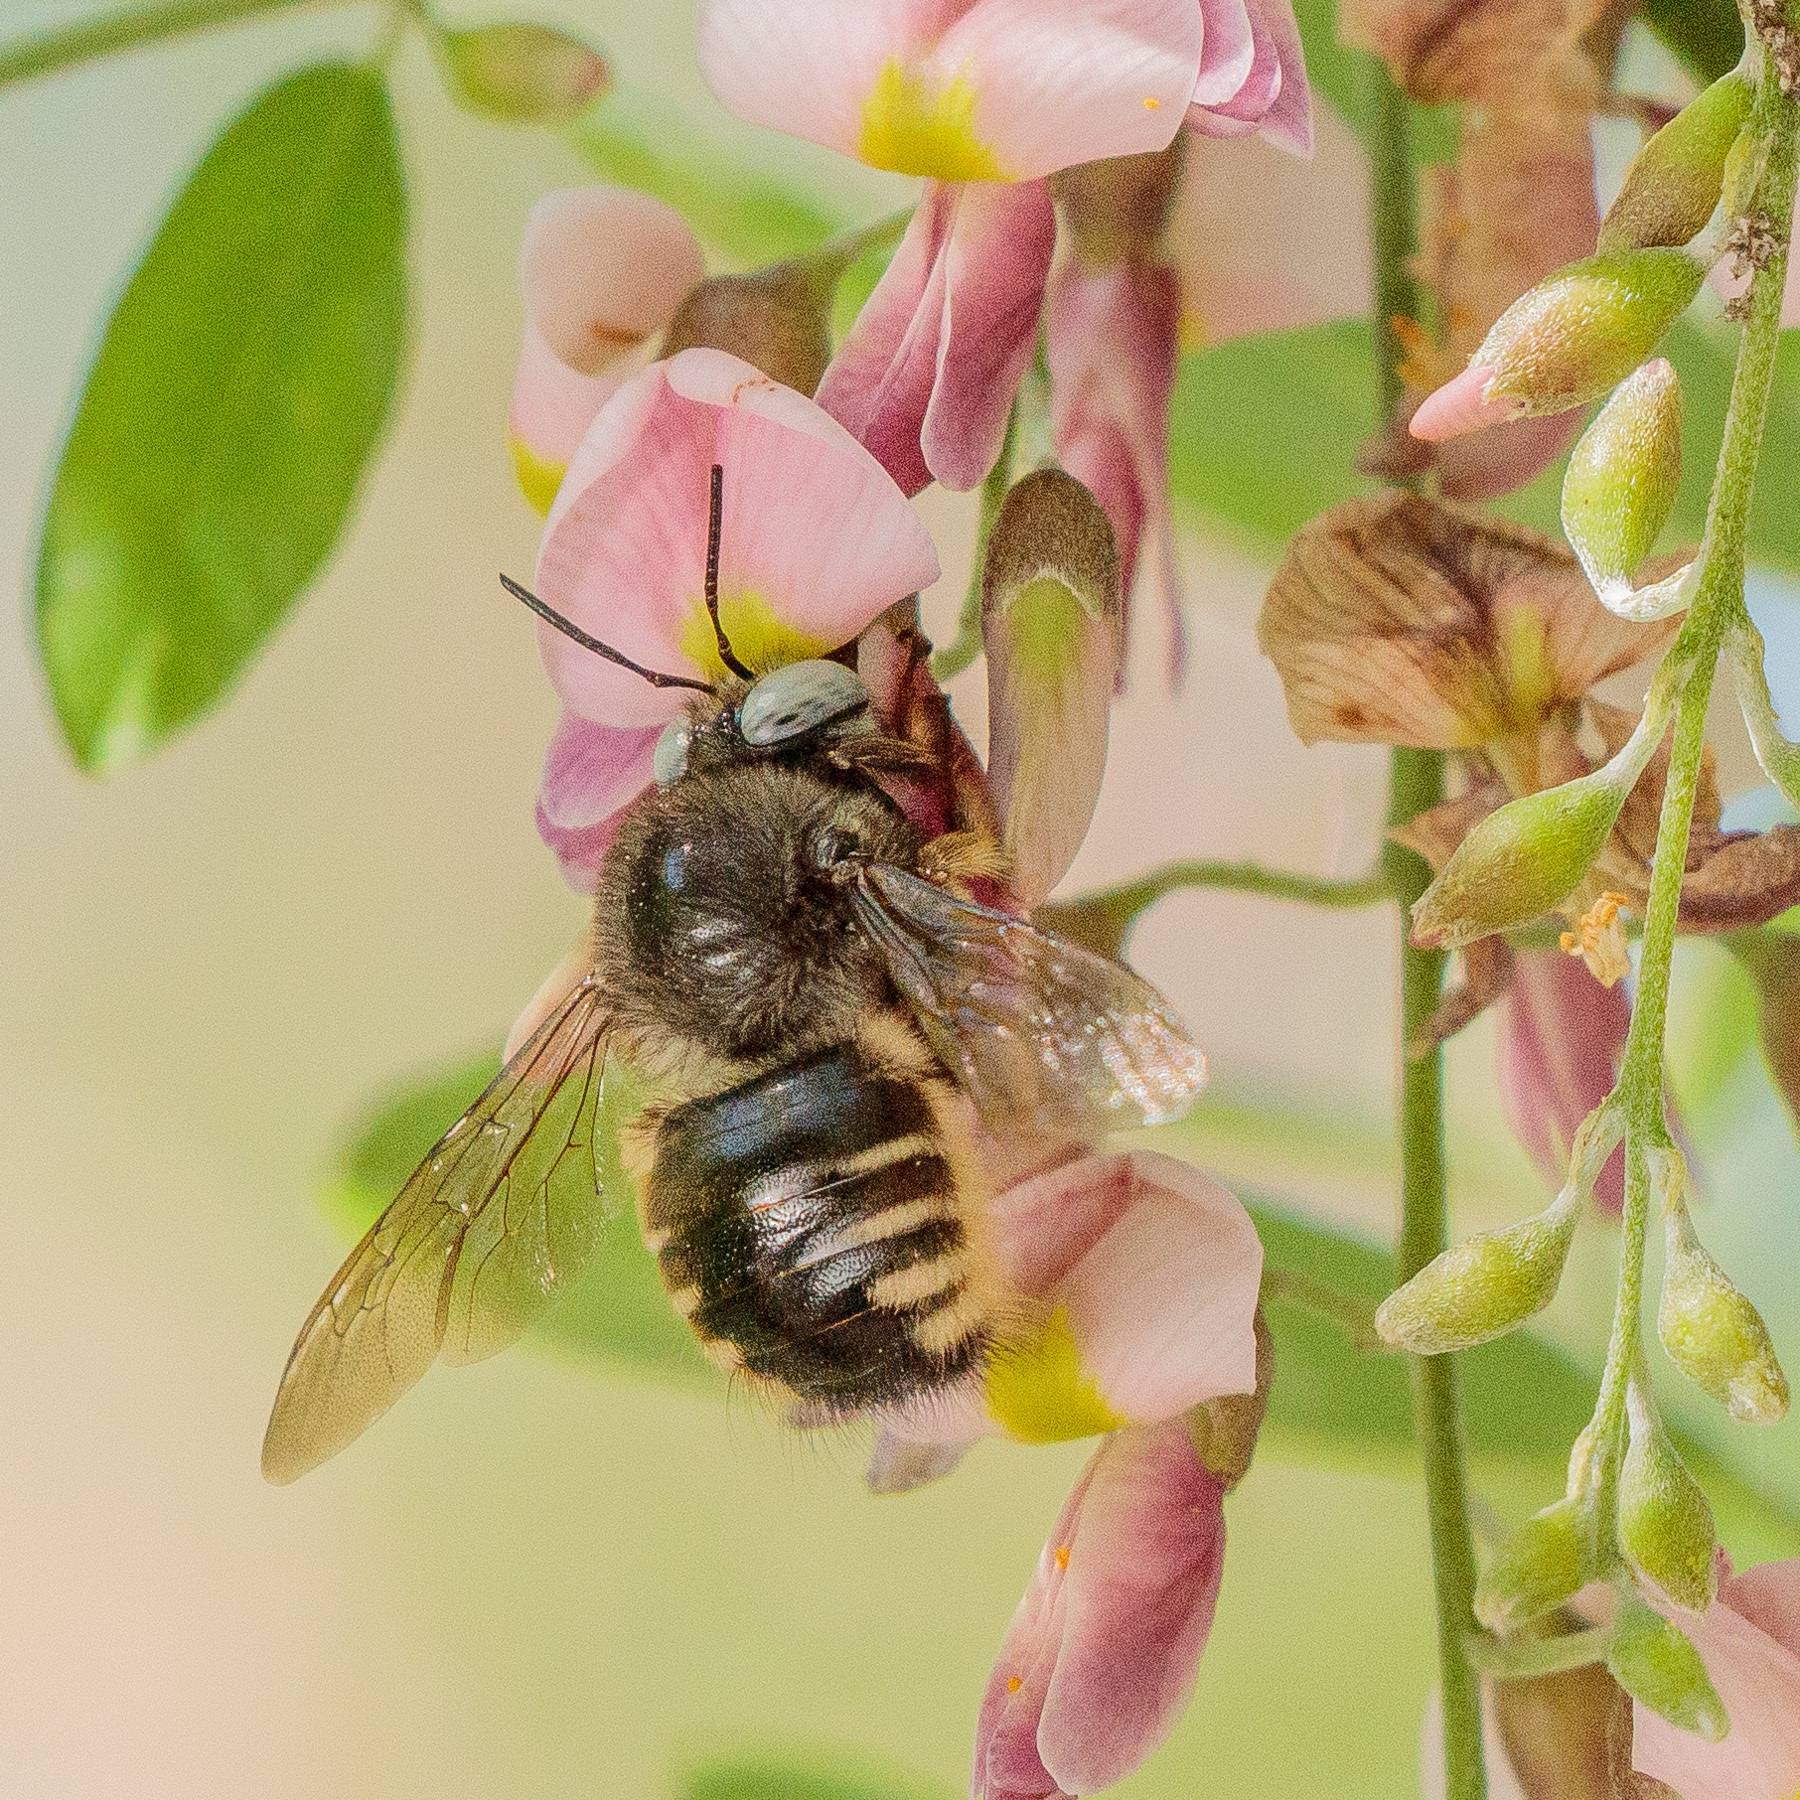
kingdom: Animalia
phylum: Arthropoda
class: Insecta
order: Hymenoptera
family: Apidae
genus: Xylocopa
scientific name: Xylocopa tabaniformis
